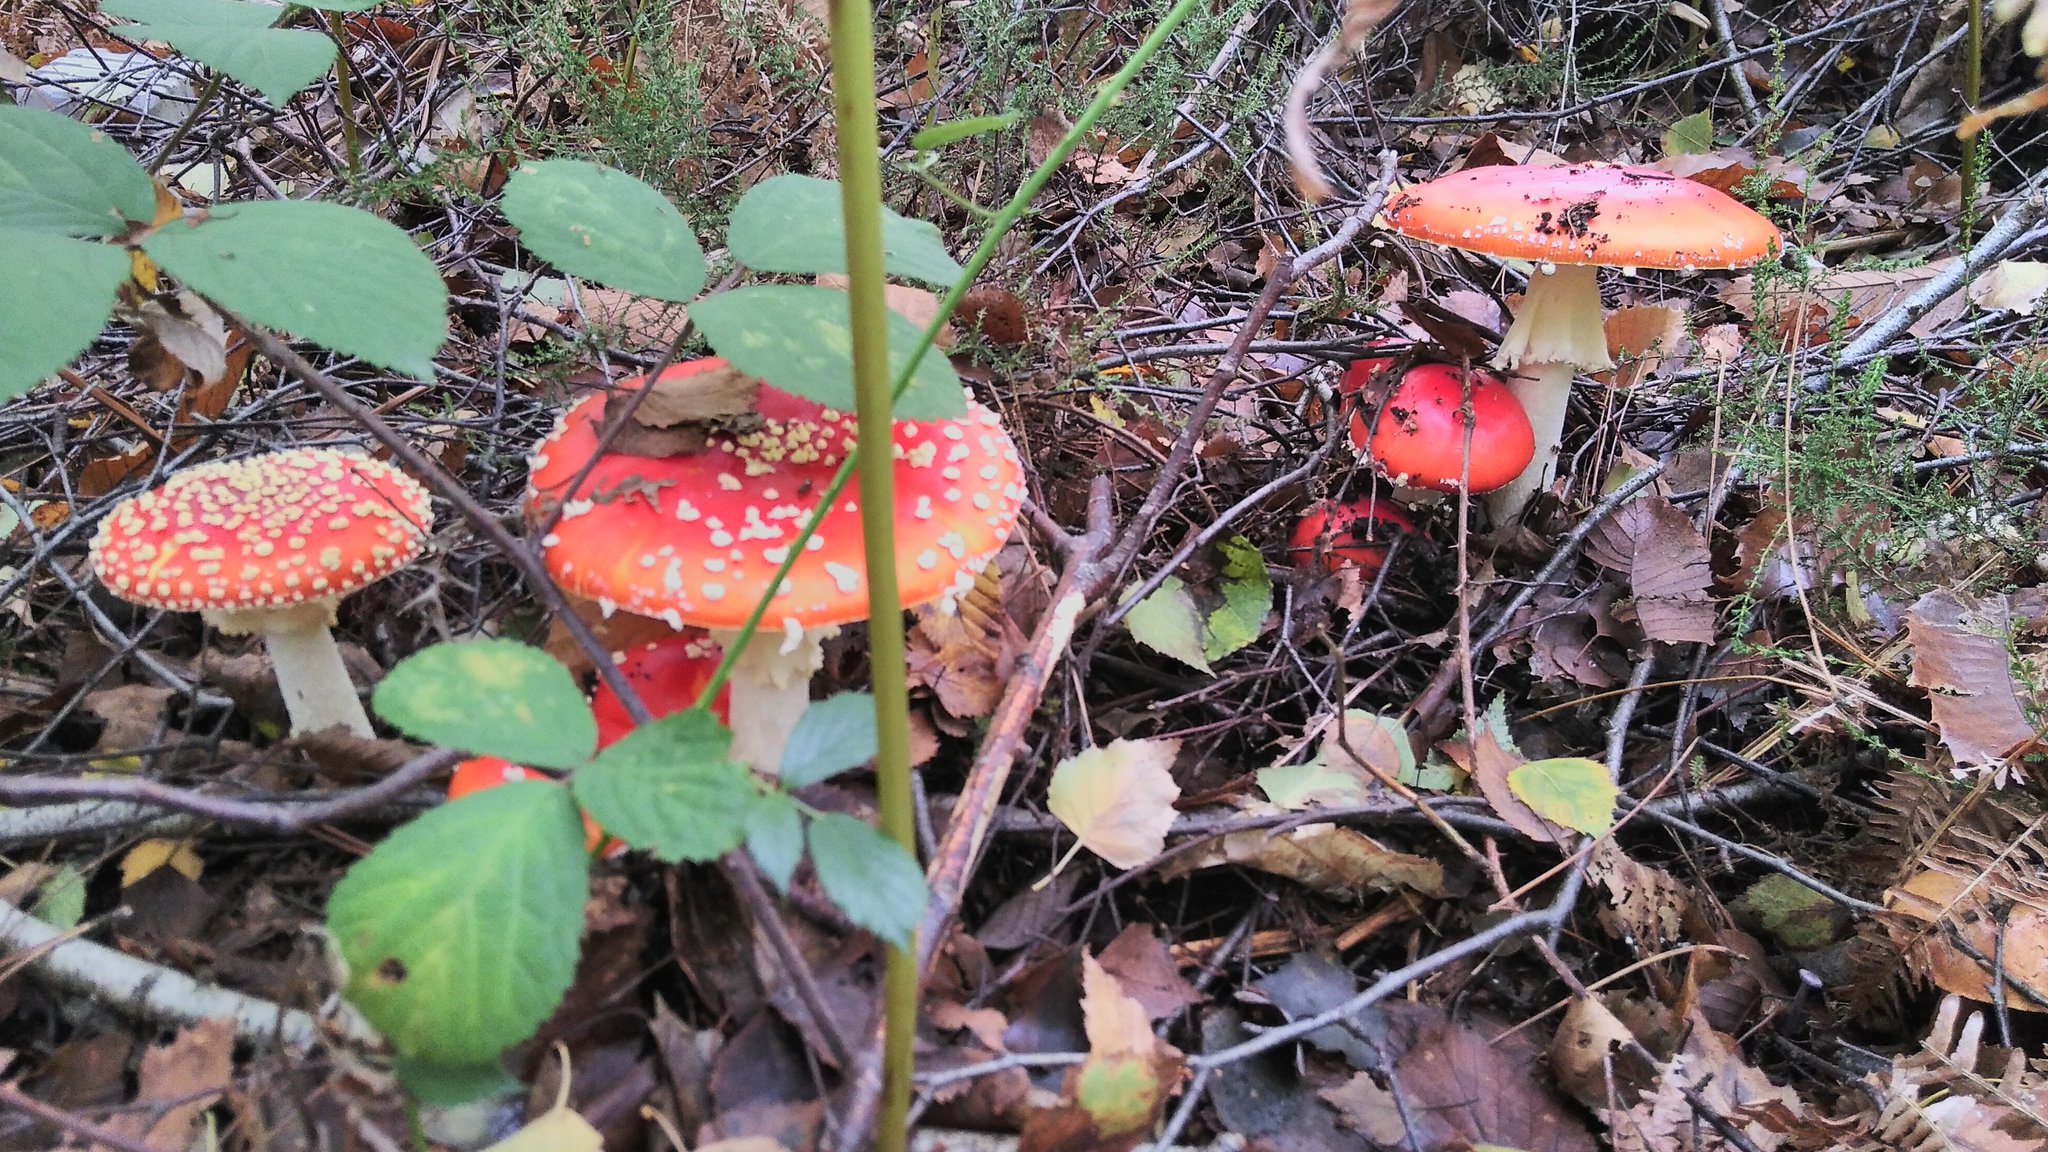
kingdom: Fungi
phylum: Basidiomycota
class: Agaricomycetes
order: Agaricales
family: Amanitaceae
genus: Amanita
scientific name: Amanita muscaria
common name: Fly agaric
